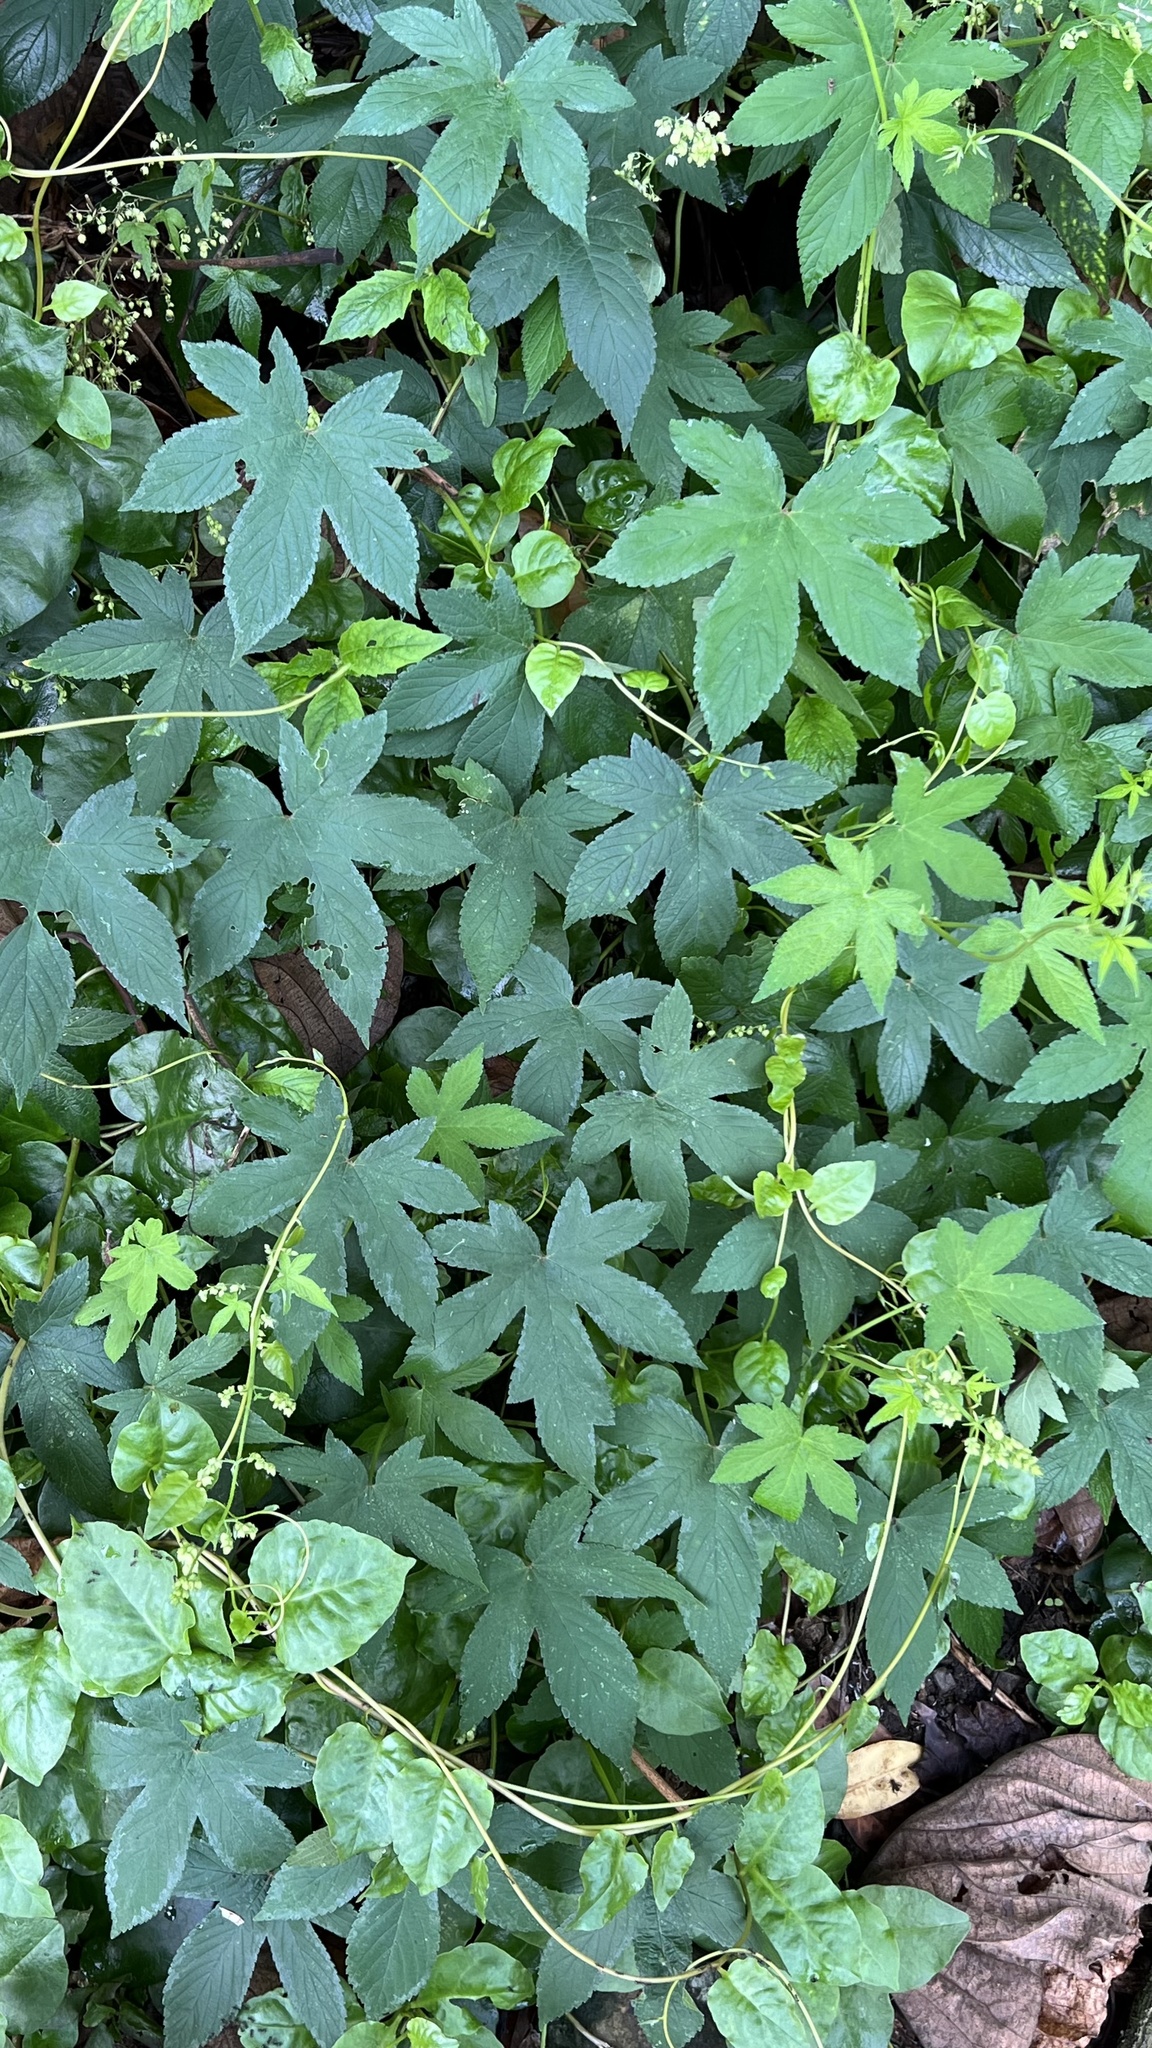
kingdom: Plantae
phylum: Tracheophyta
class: Magnoliopsida
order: Rosales
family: Cannabaceae
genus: Humulus
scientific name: Humulus scandens
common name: Japanese hop
